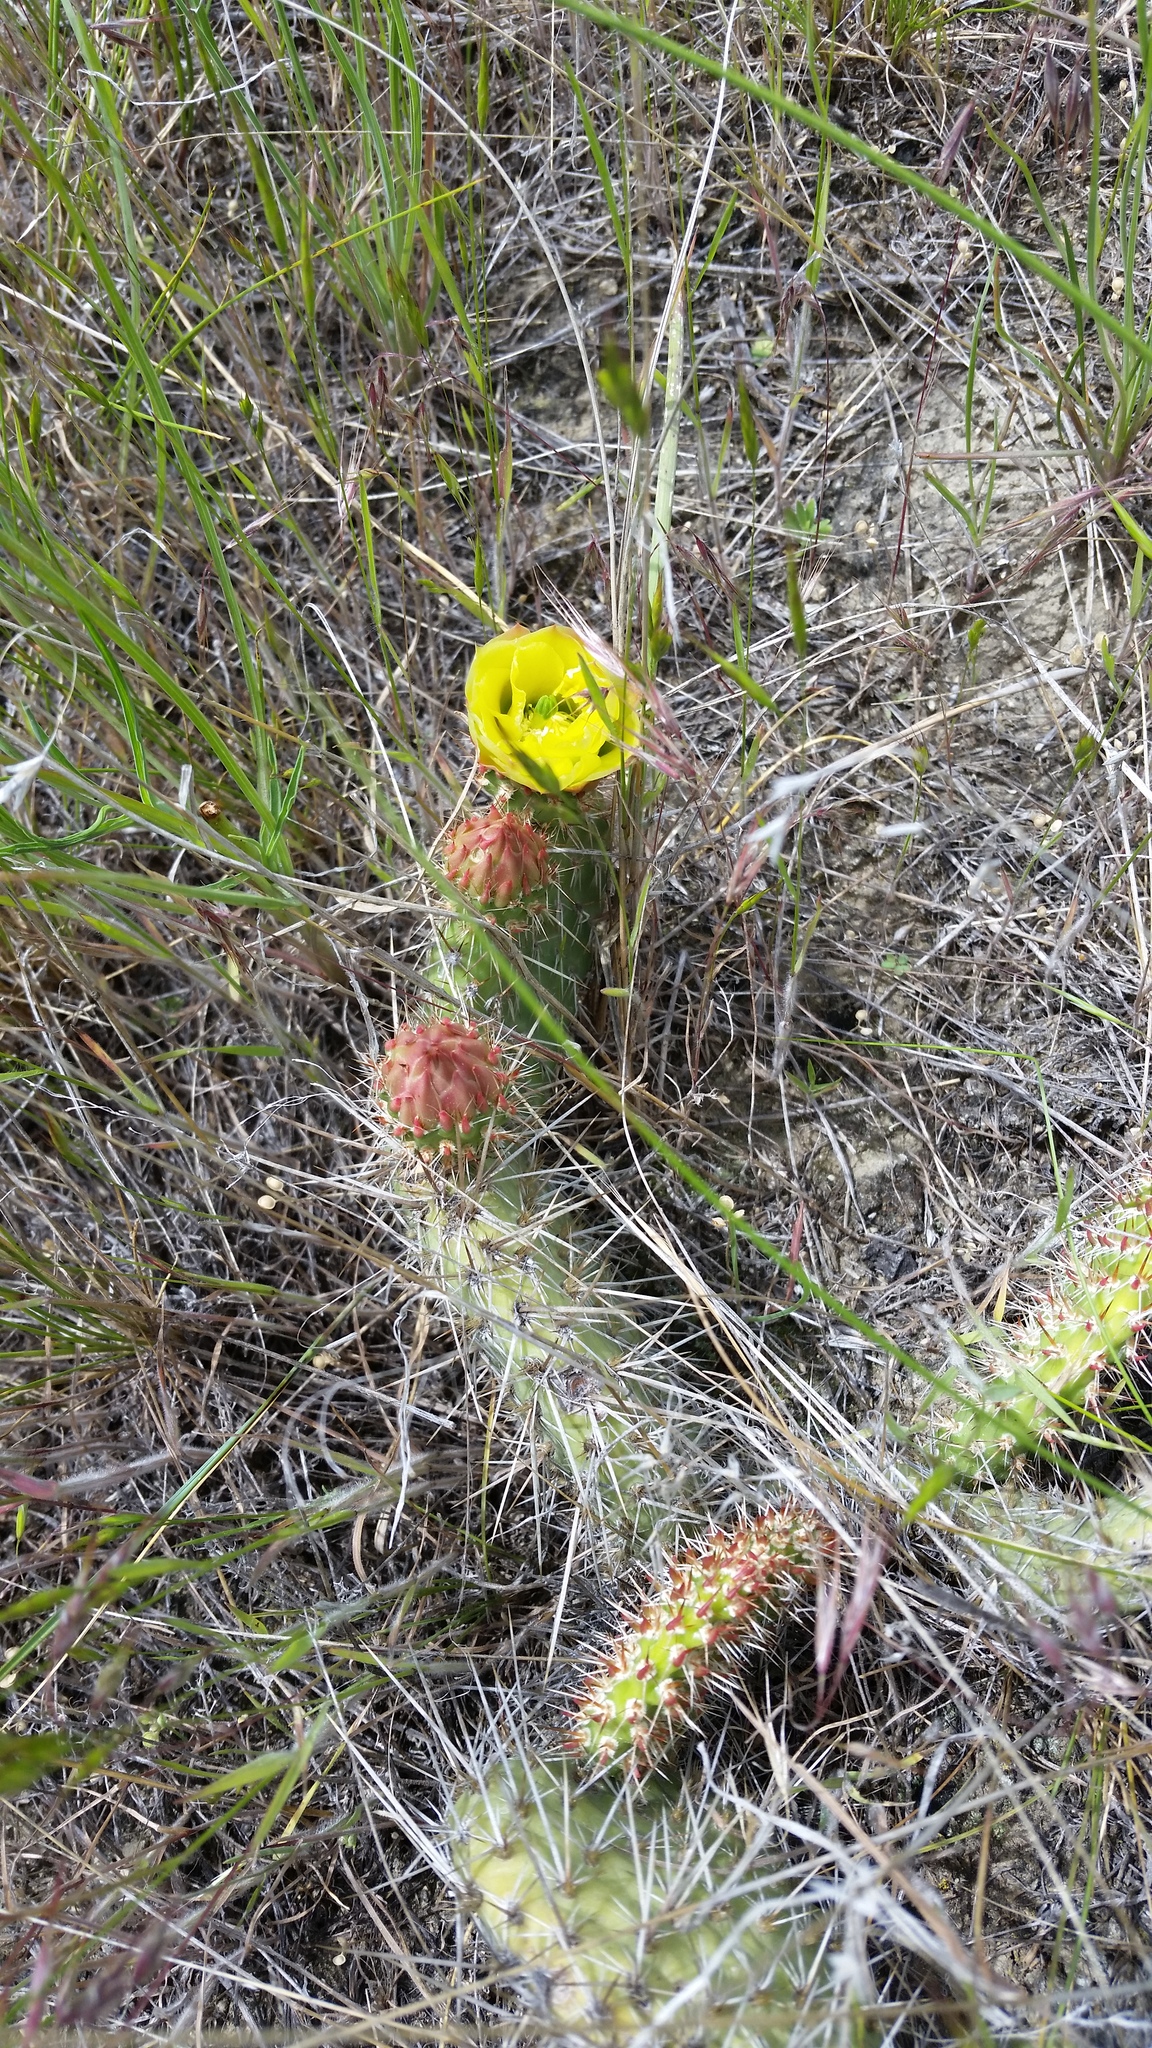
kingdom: Plantae
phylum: Tracheophyta
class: Magnoliopsida
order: Caryophyllales
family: Cactaceae
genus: Opuntia
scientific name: Opuntia polyacantha
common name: Plains prickly-pear
